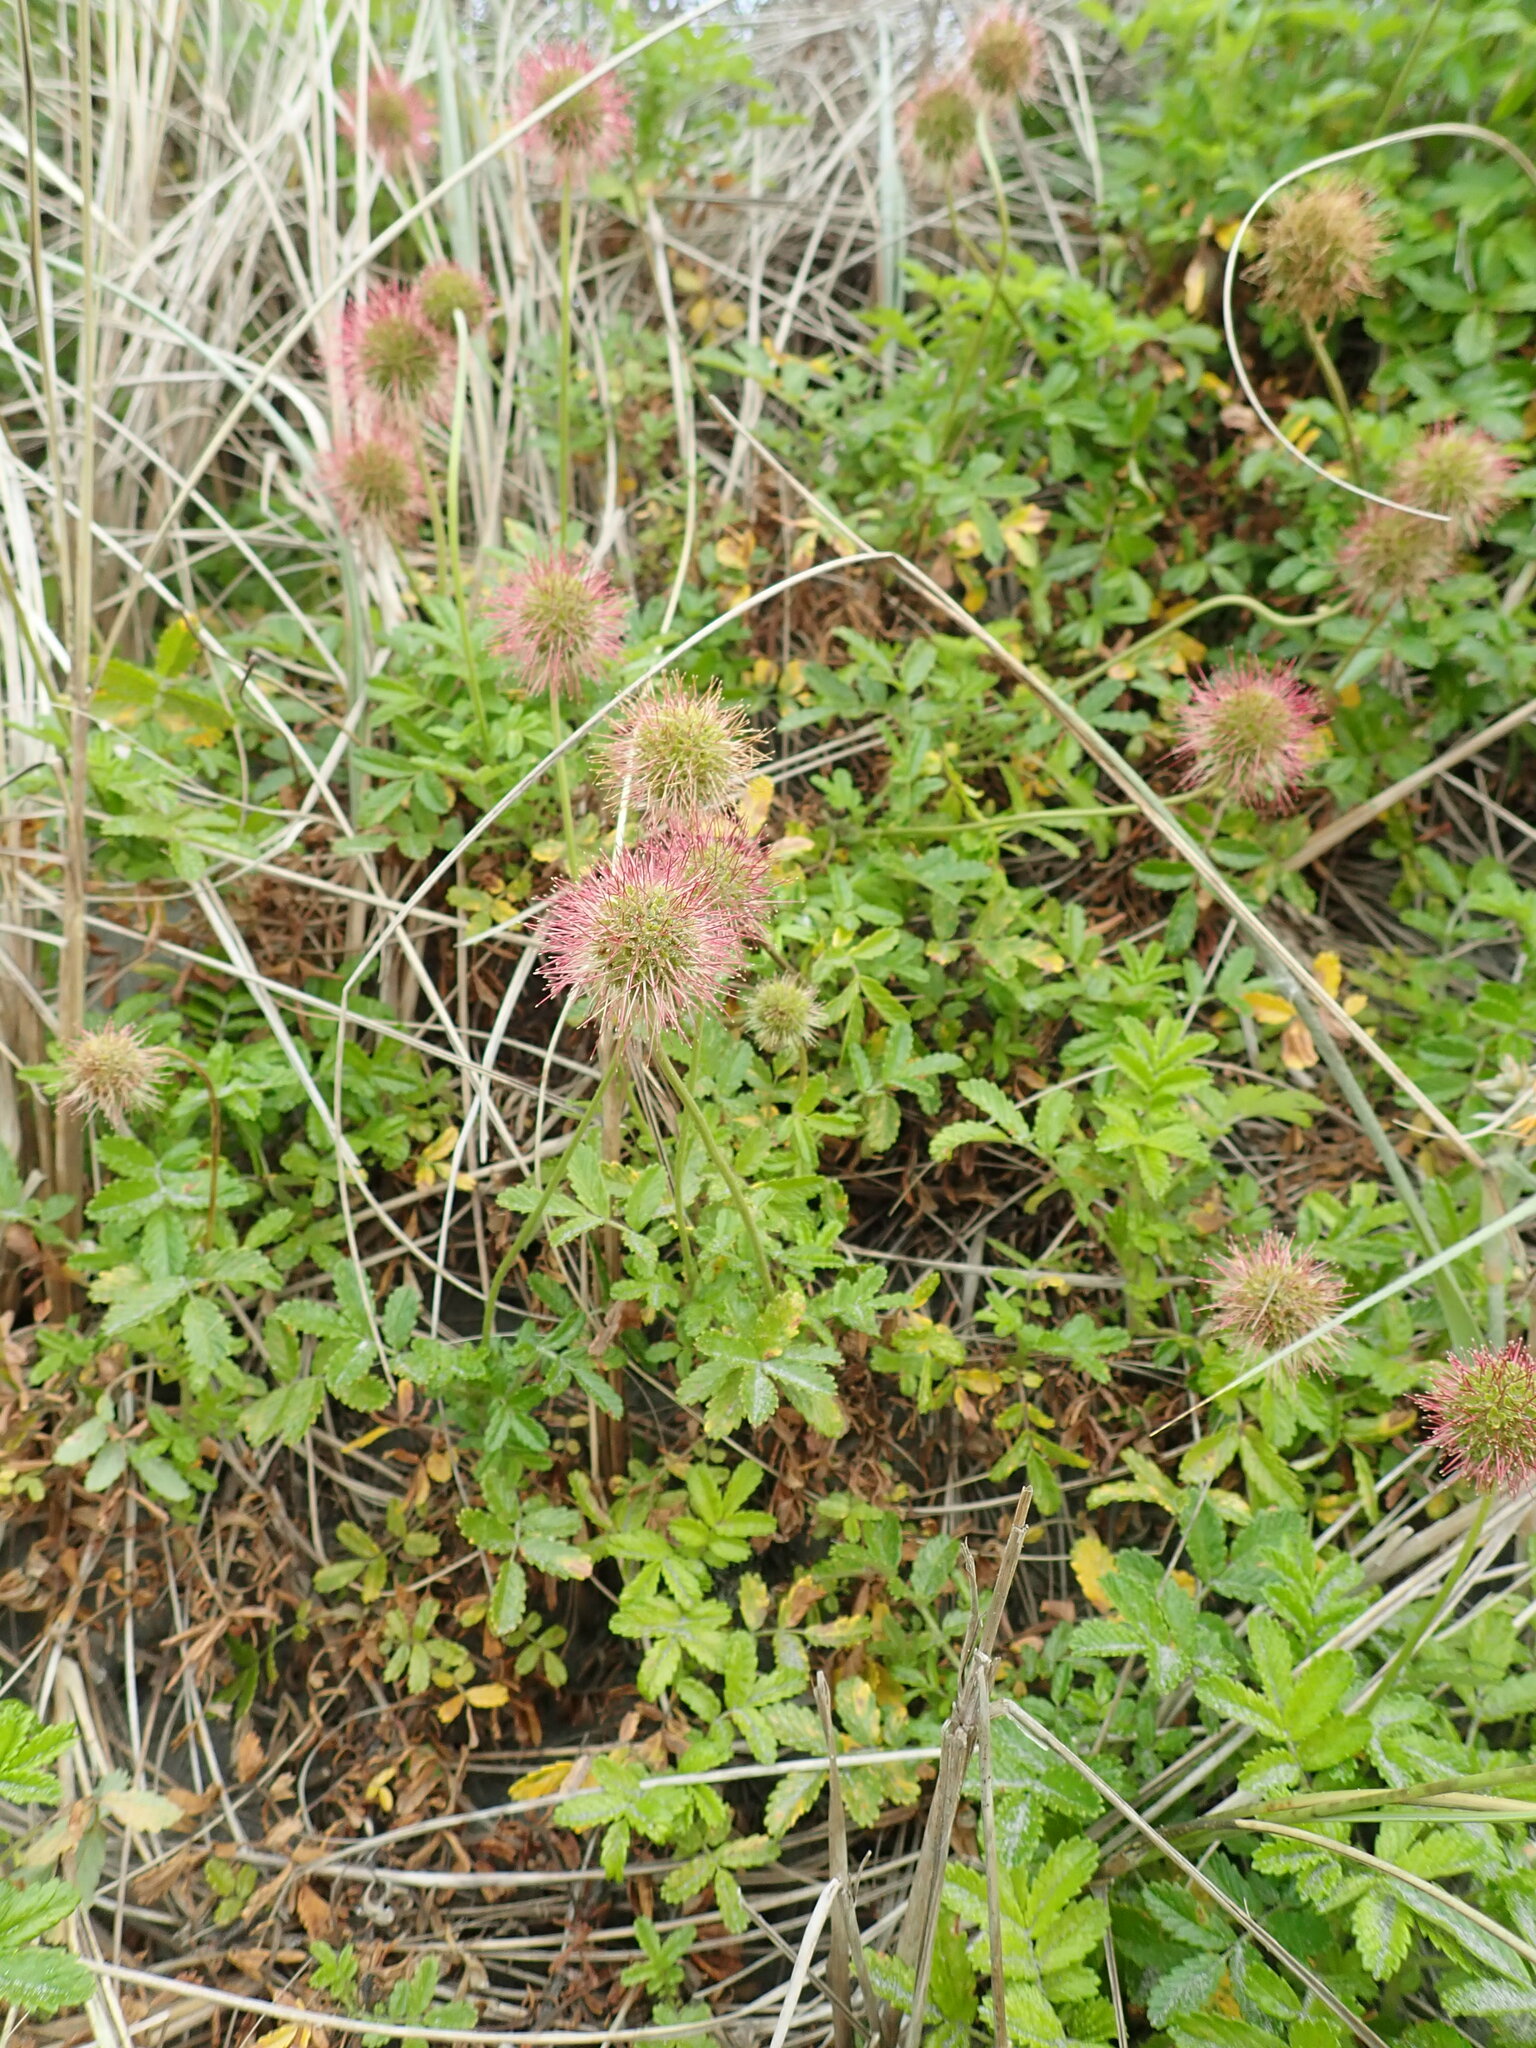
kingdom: Plantae
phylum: Tracheophyta
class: Magnoliopsida
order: Rosales
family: Rosaceae
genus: Acaena
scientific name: Acaena novae-zelandiae
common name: Pirri-pirri-bur
